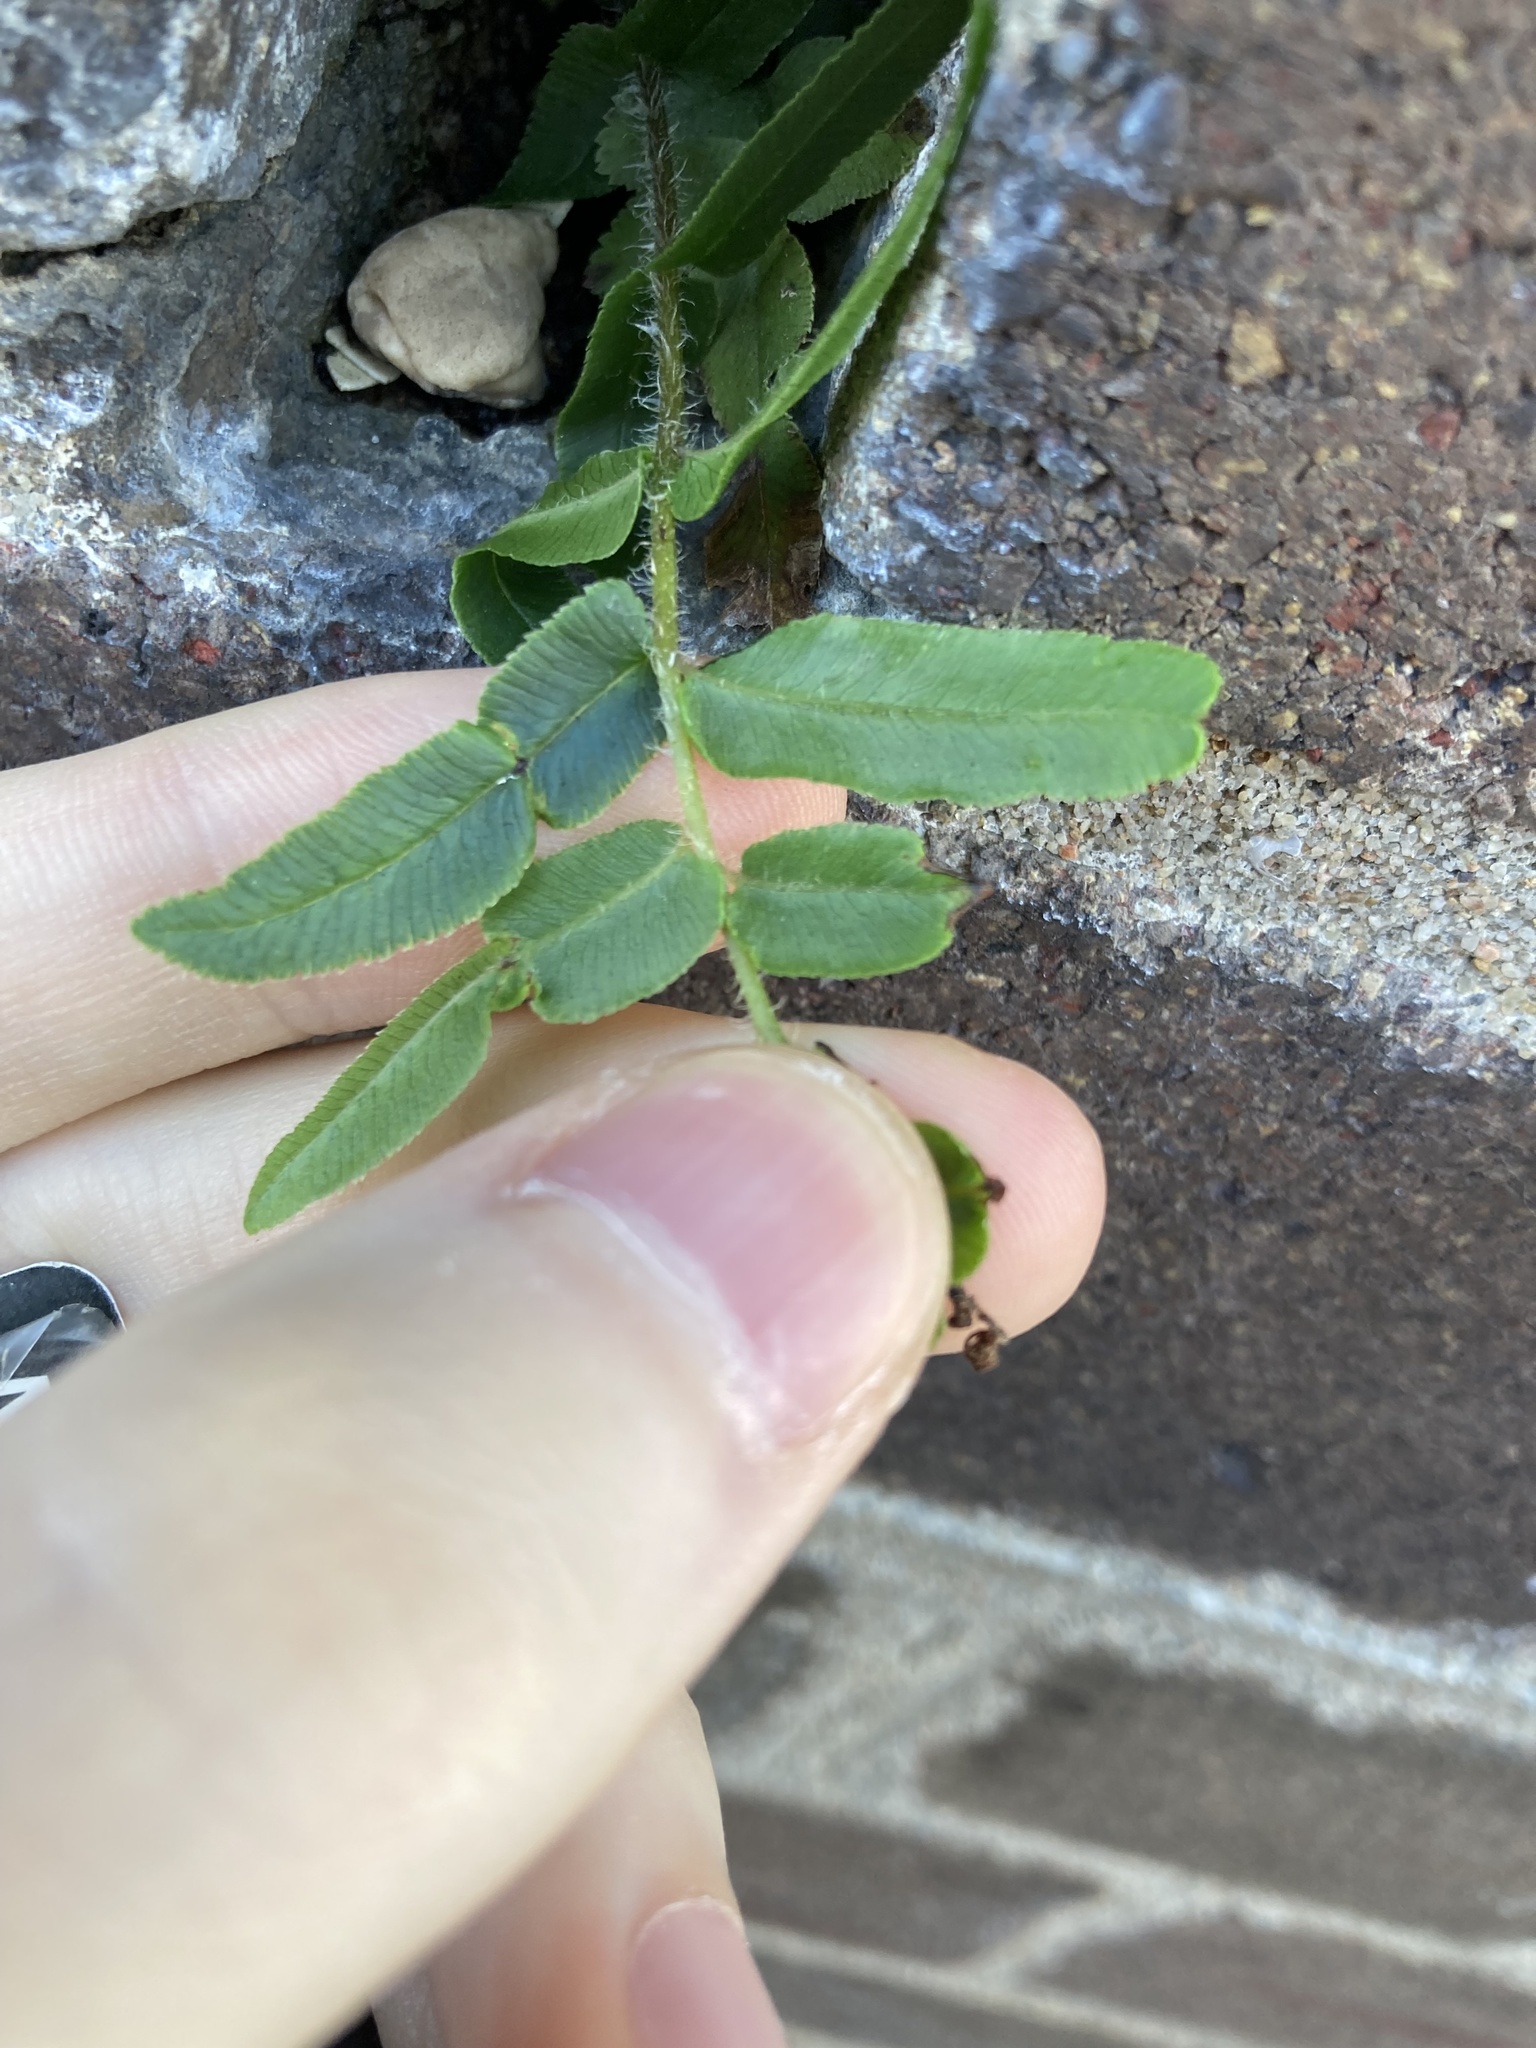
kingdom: Plantae
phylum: Tracheophyta
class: Polypodiopsida
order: Polypodiales
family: Pteridaceae
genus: Pteris
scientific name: Pteris vittata
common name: Ladder brake
